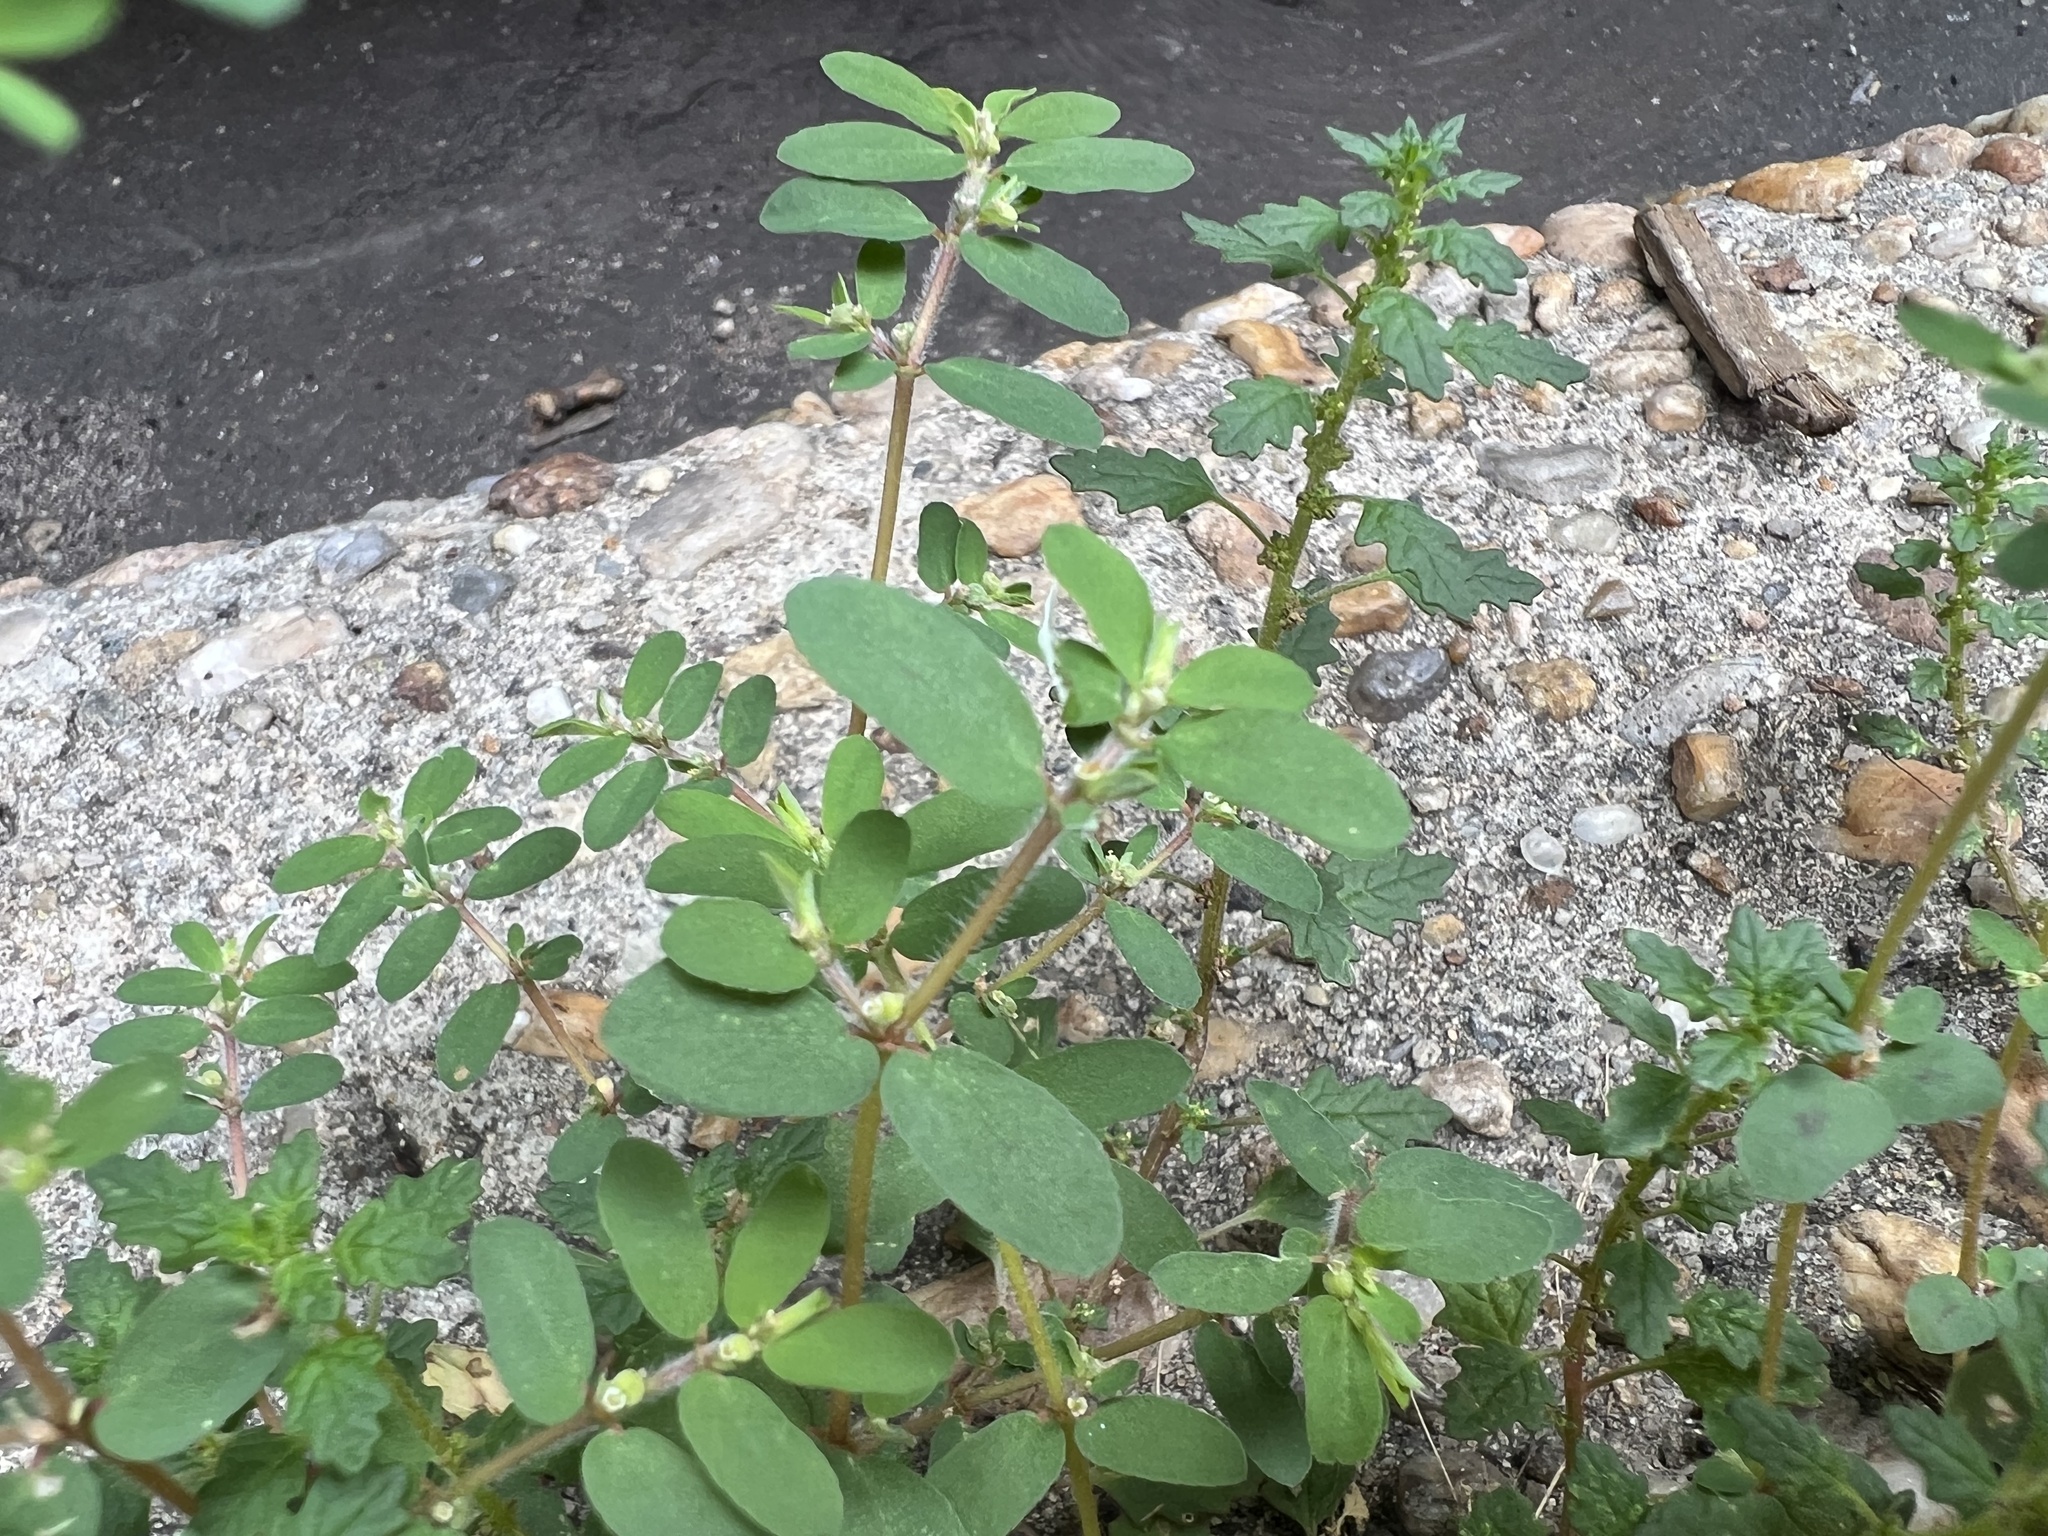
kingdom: Plantae
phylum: Tracheophyta
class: Magnoliopsida
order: Malpighiales
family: Euphorbiaceae
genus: Euphorbia
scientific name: Euphorbia maculata
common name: Spotted spurge
